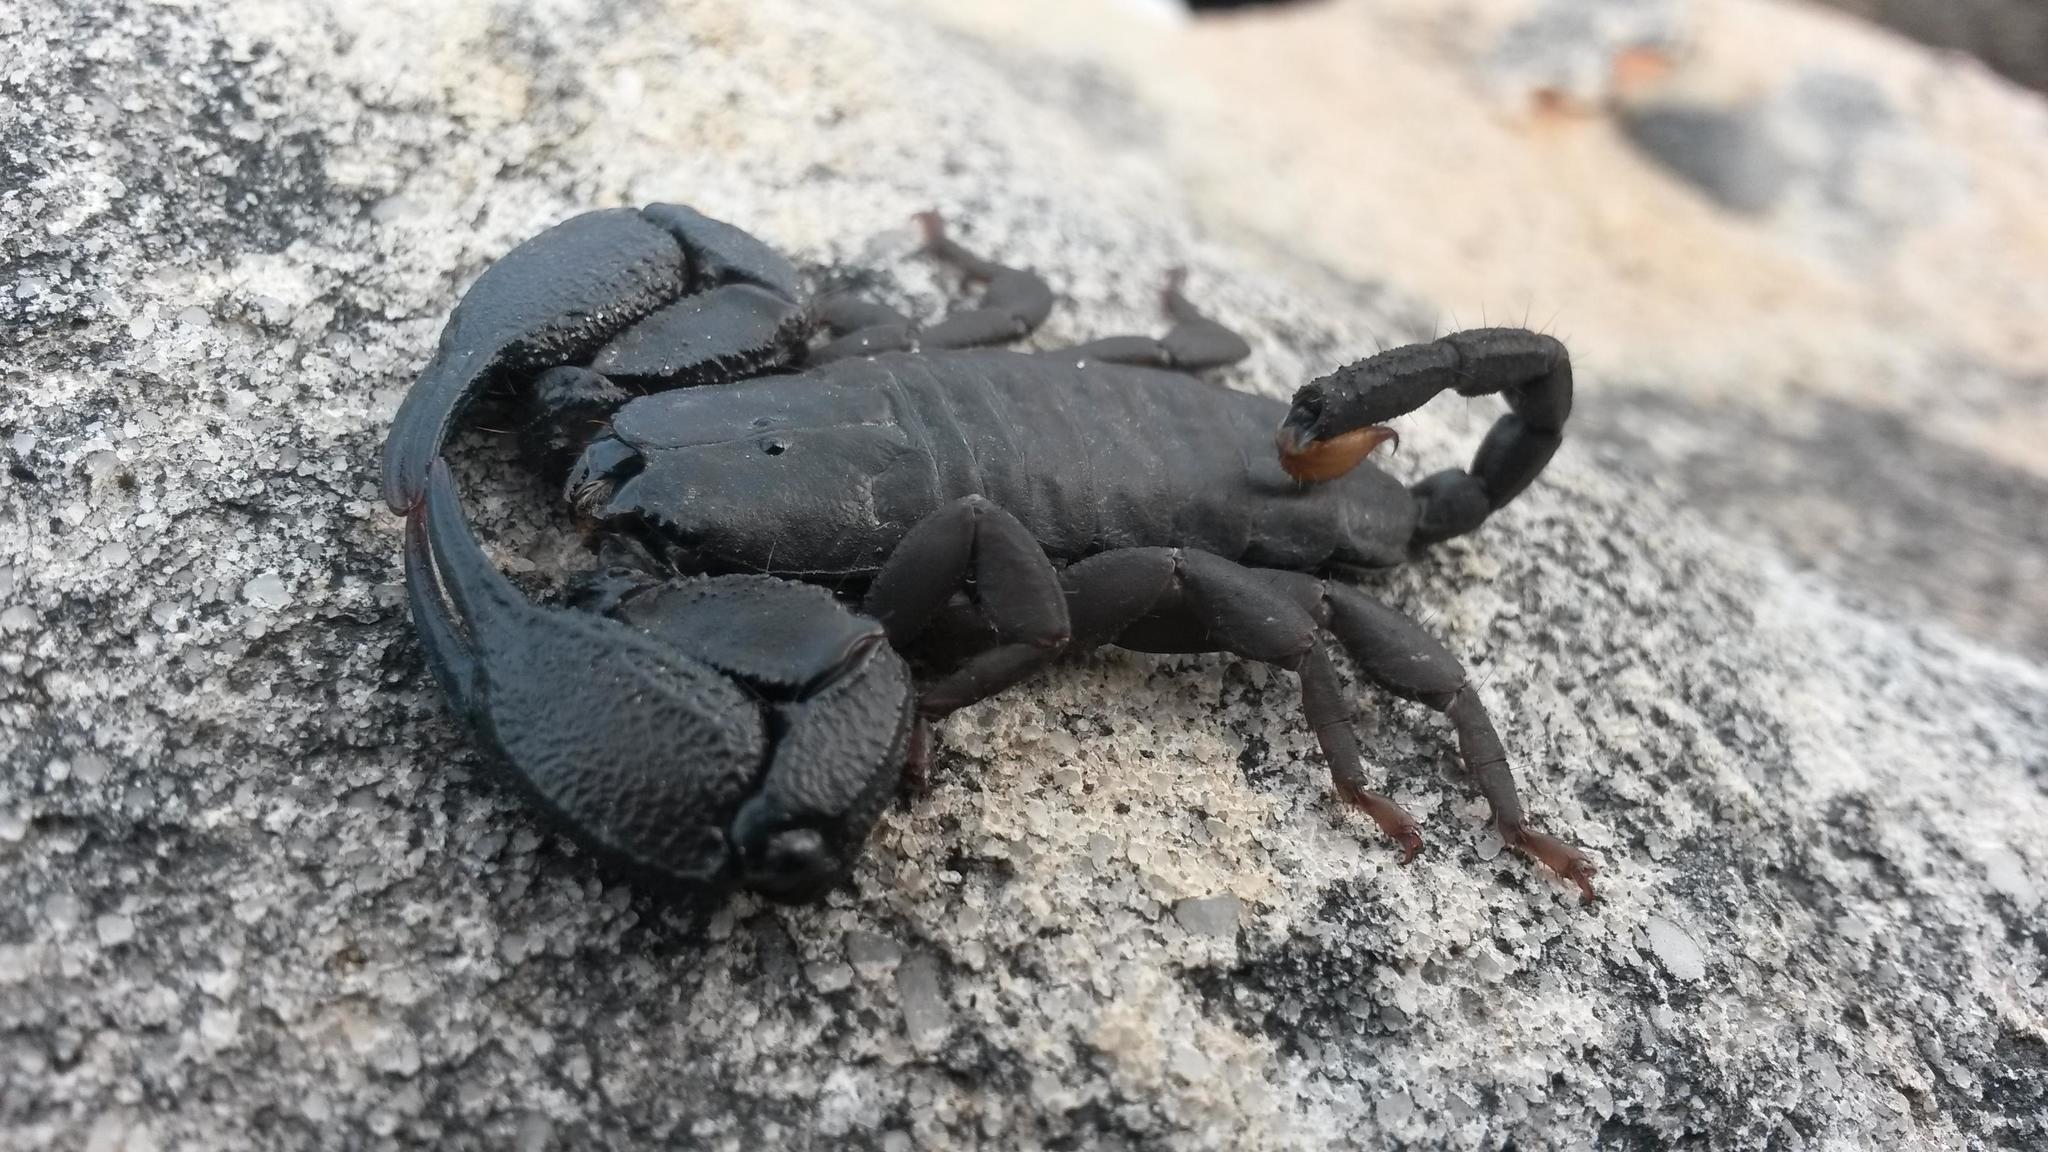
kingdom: Animalia
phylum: Arthropoda
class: Arachnida
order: Scorpiones
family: Hormuridae
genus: Opisthacanthus
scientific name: Opisthacanthus capensis
